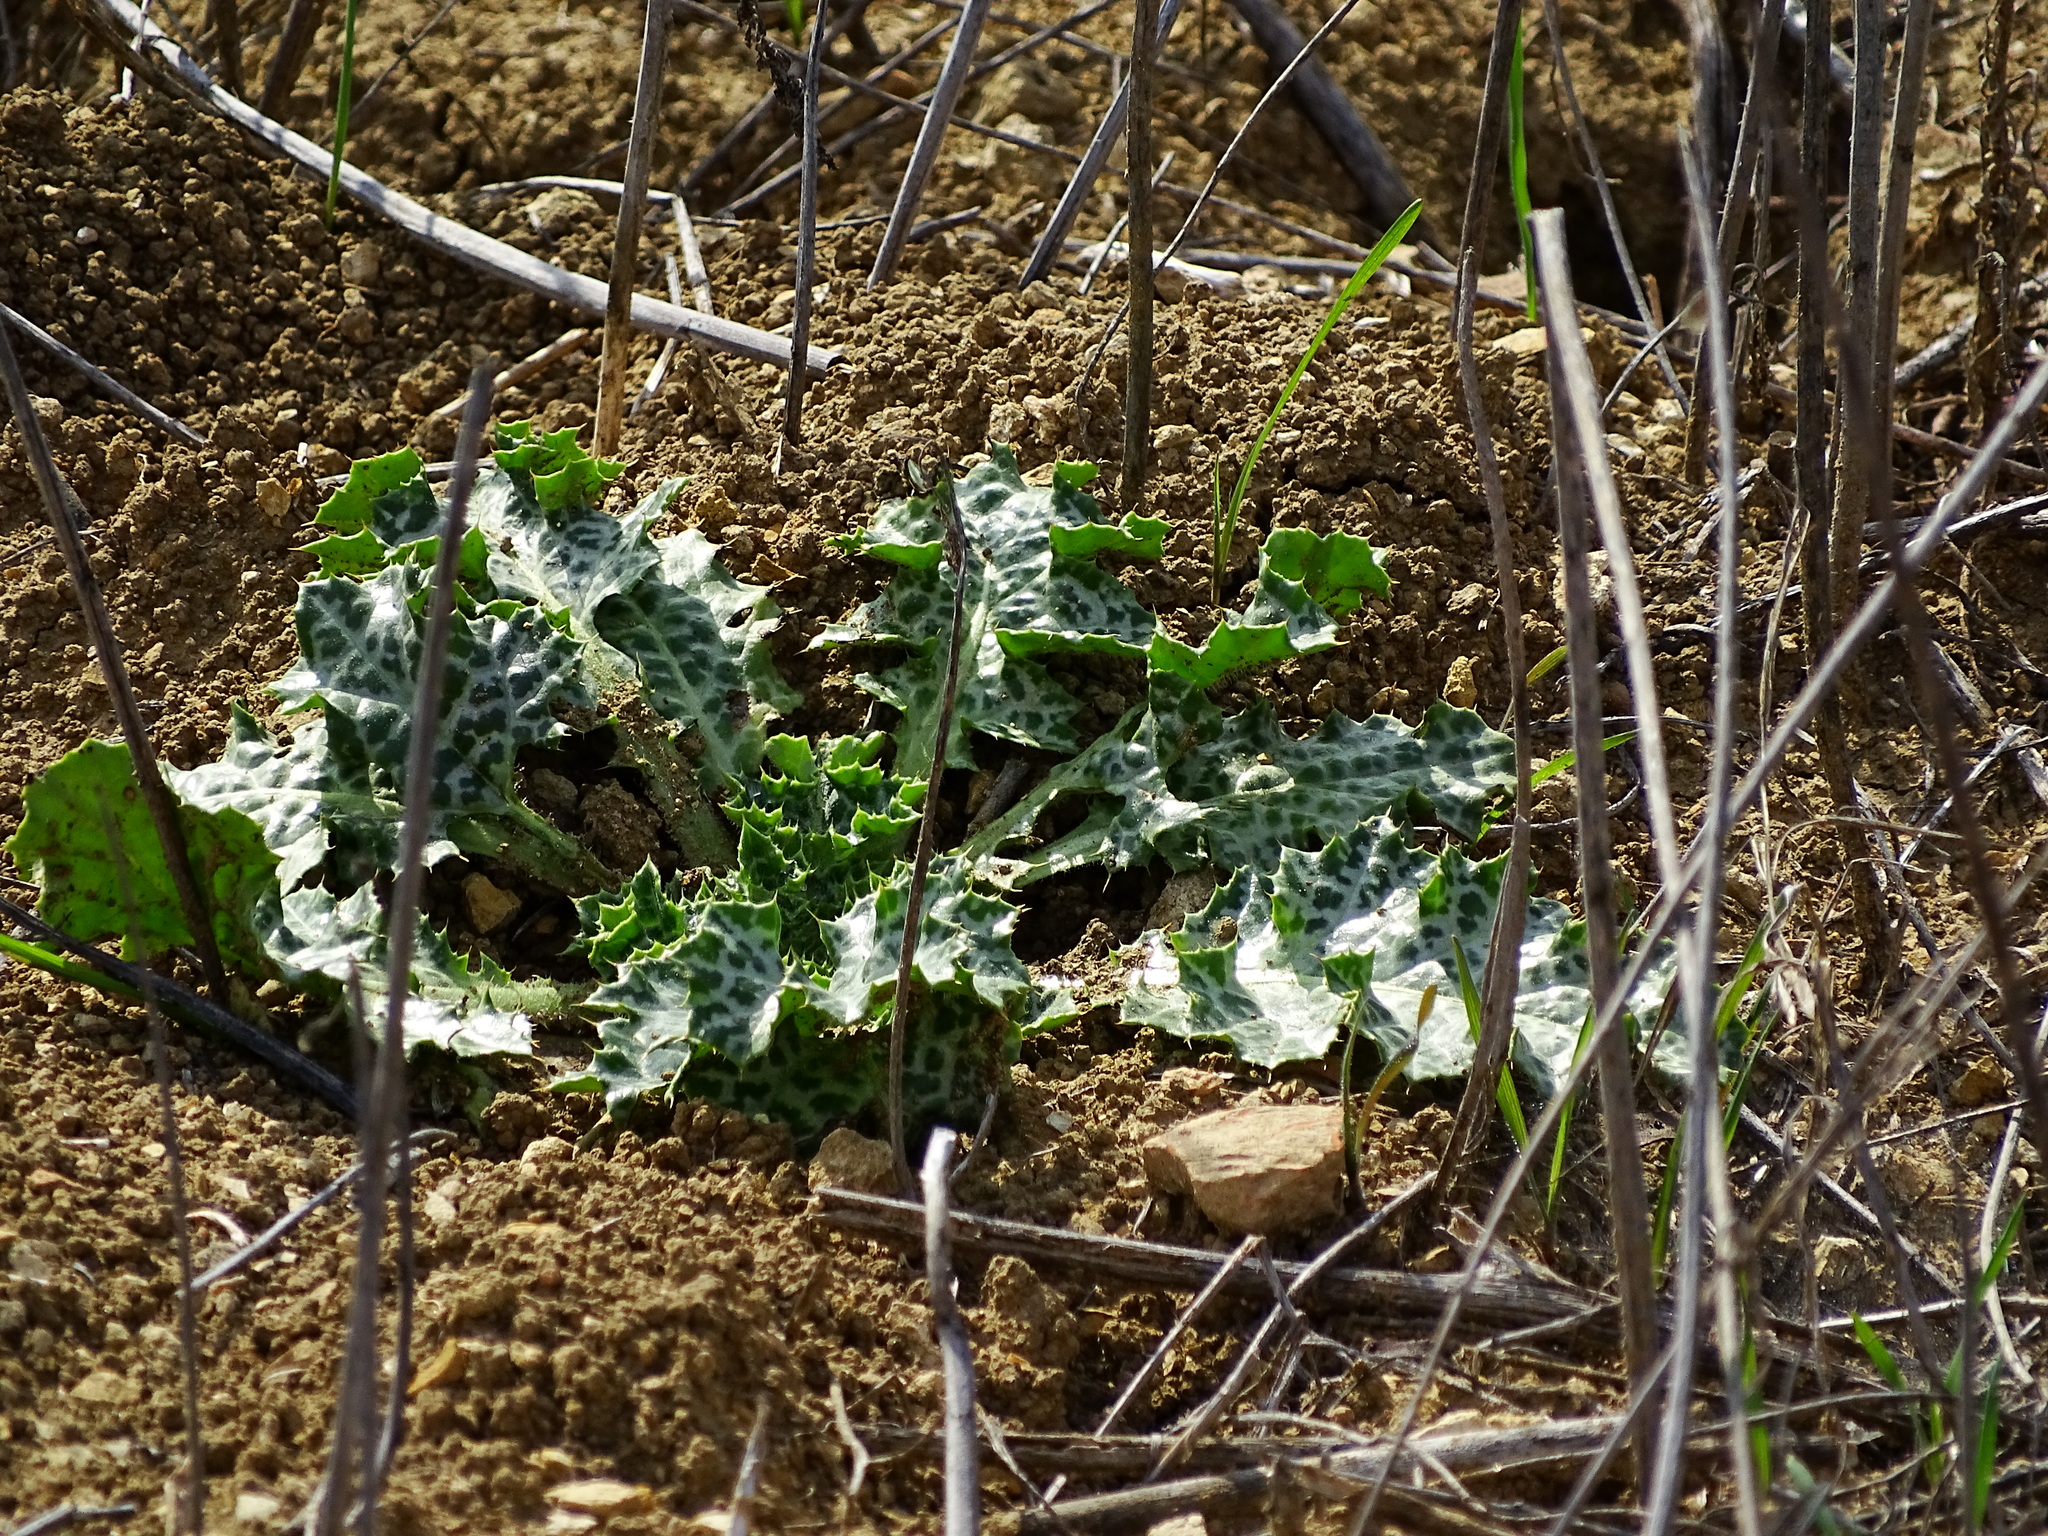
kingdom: Plantae
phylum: Tracheophyta
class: Magnoliopsida
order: Asterales
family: Asteraceae
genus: Silybum
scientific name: Silybum marianum
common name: Milk thistle
